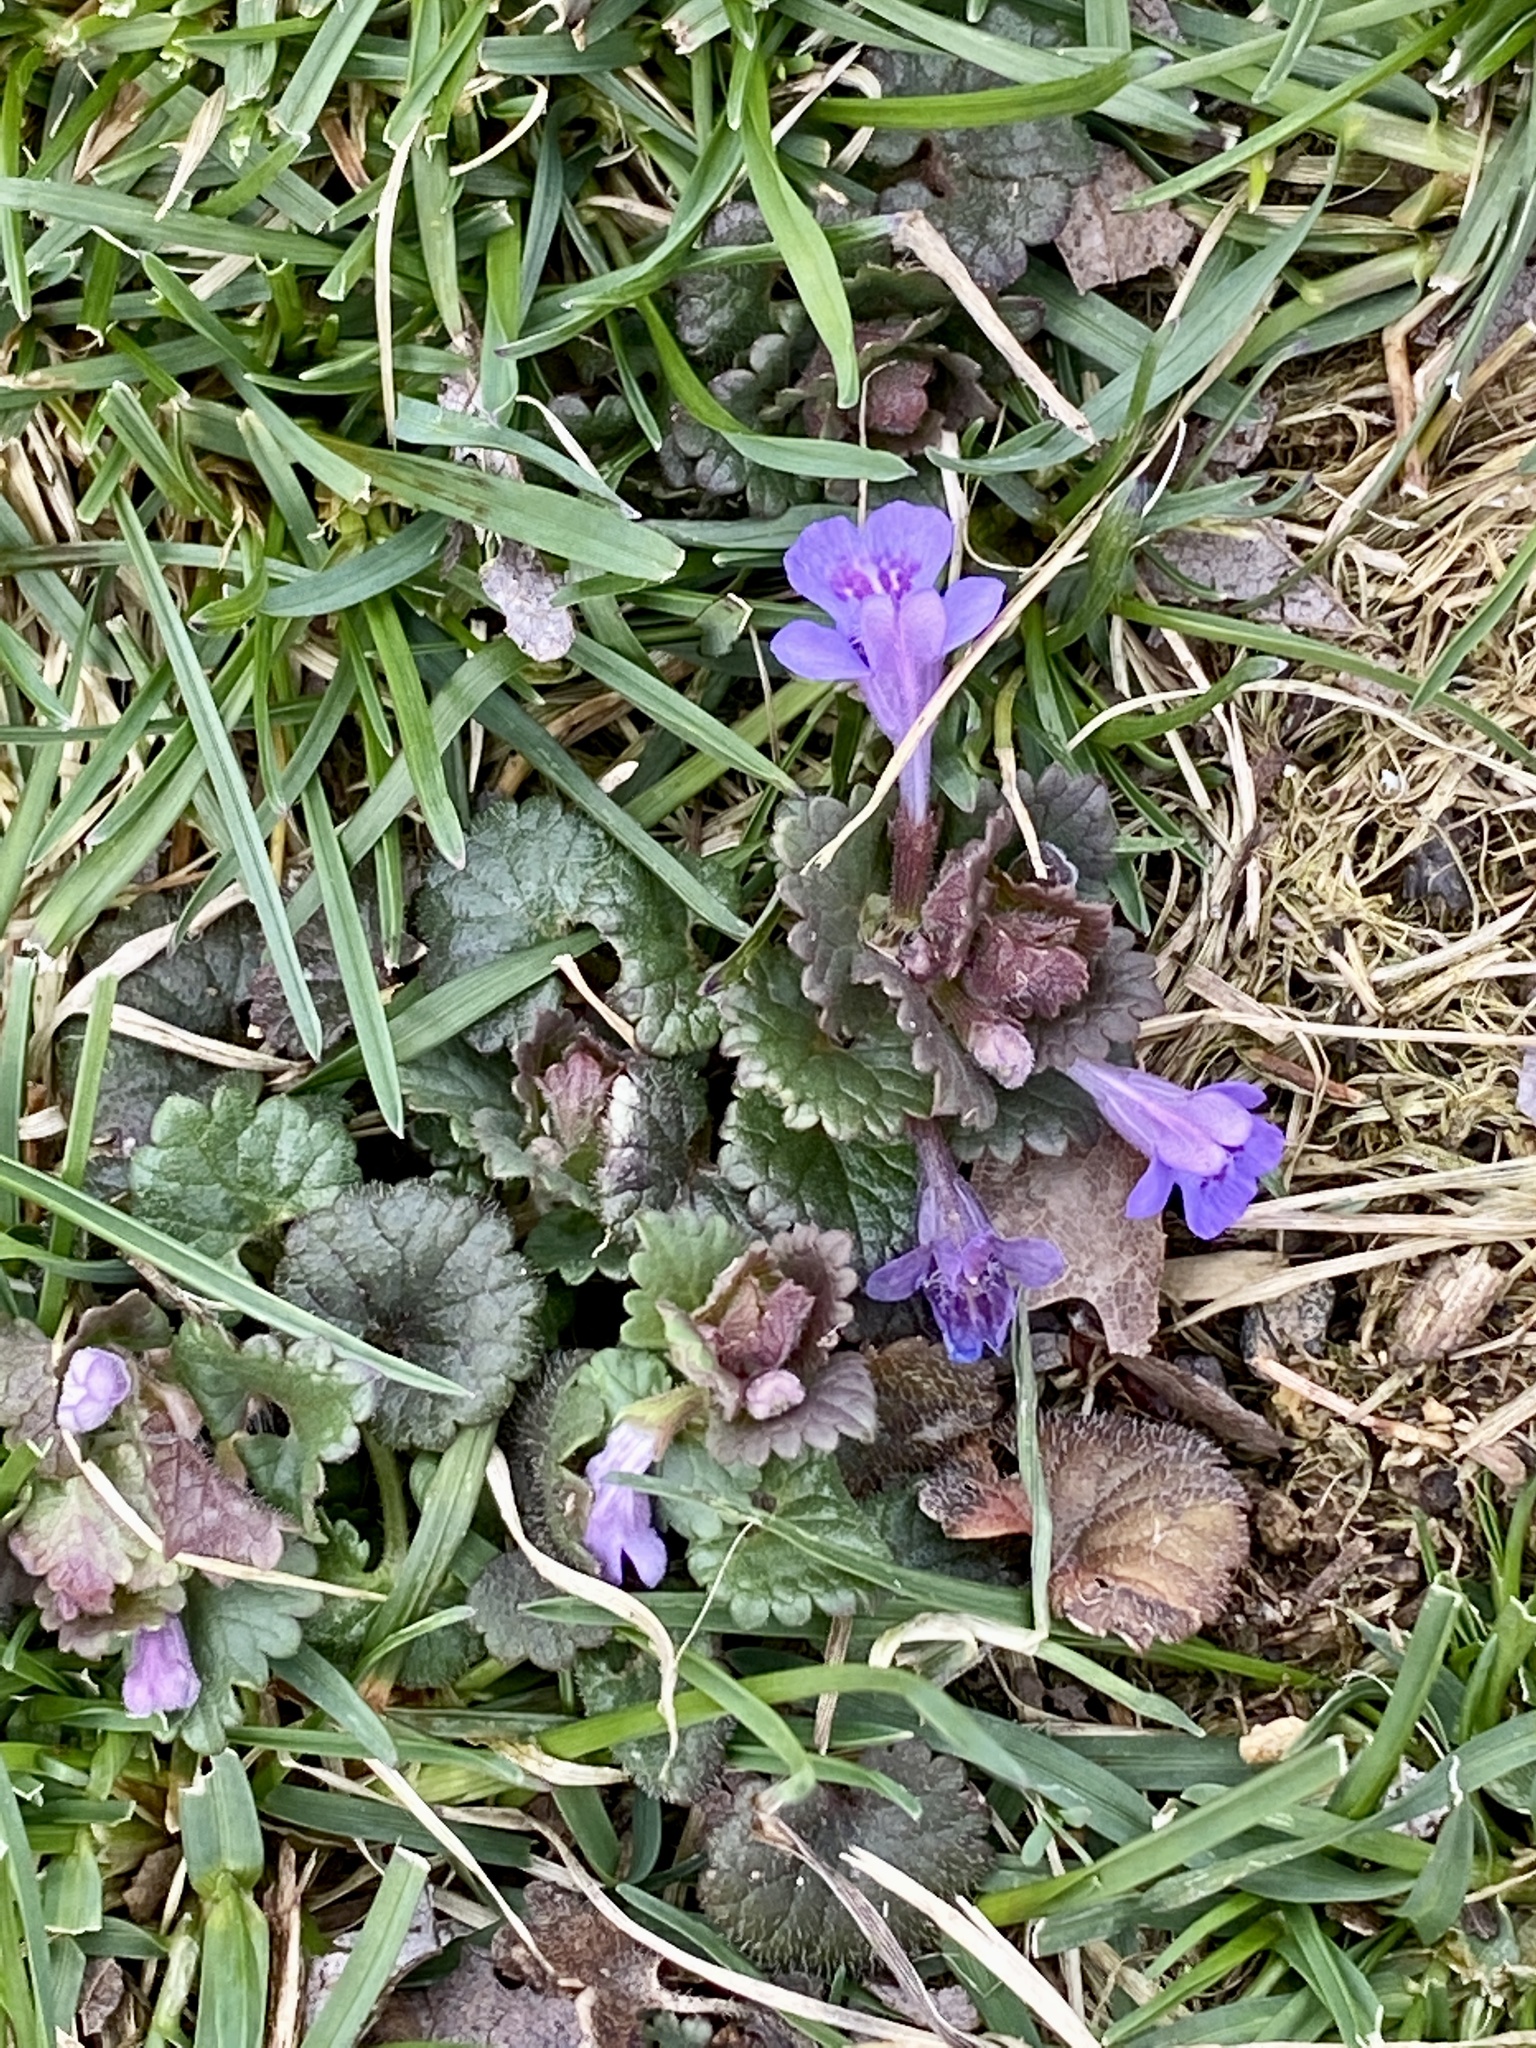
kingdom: Plantae
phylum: Tracheophyta
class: Magnoliopsida
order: Lamiales
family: Lamiaceae
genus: Glechoma
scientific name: Glechoma hederacea
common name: Ground ivy
